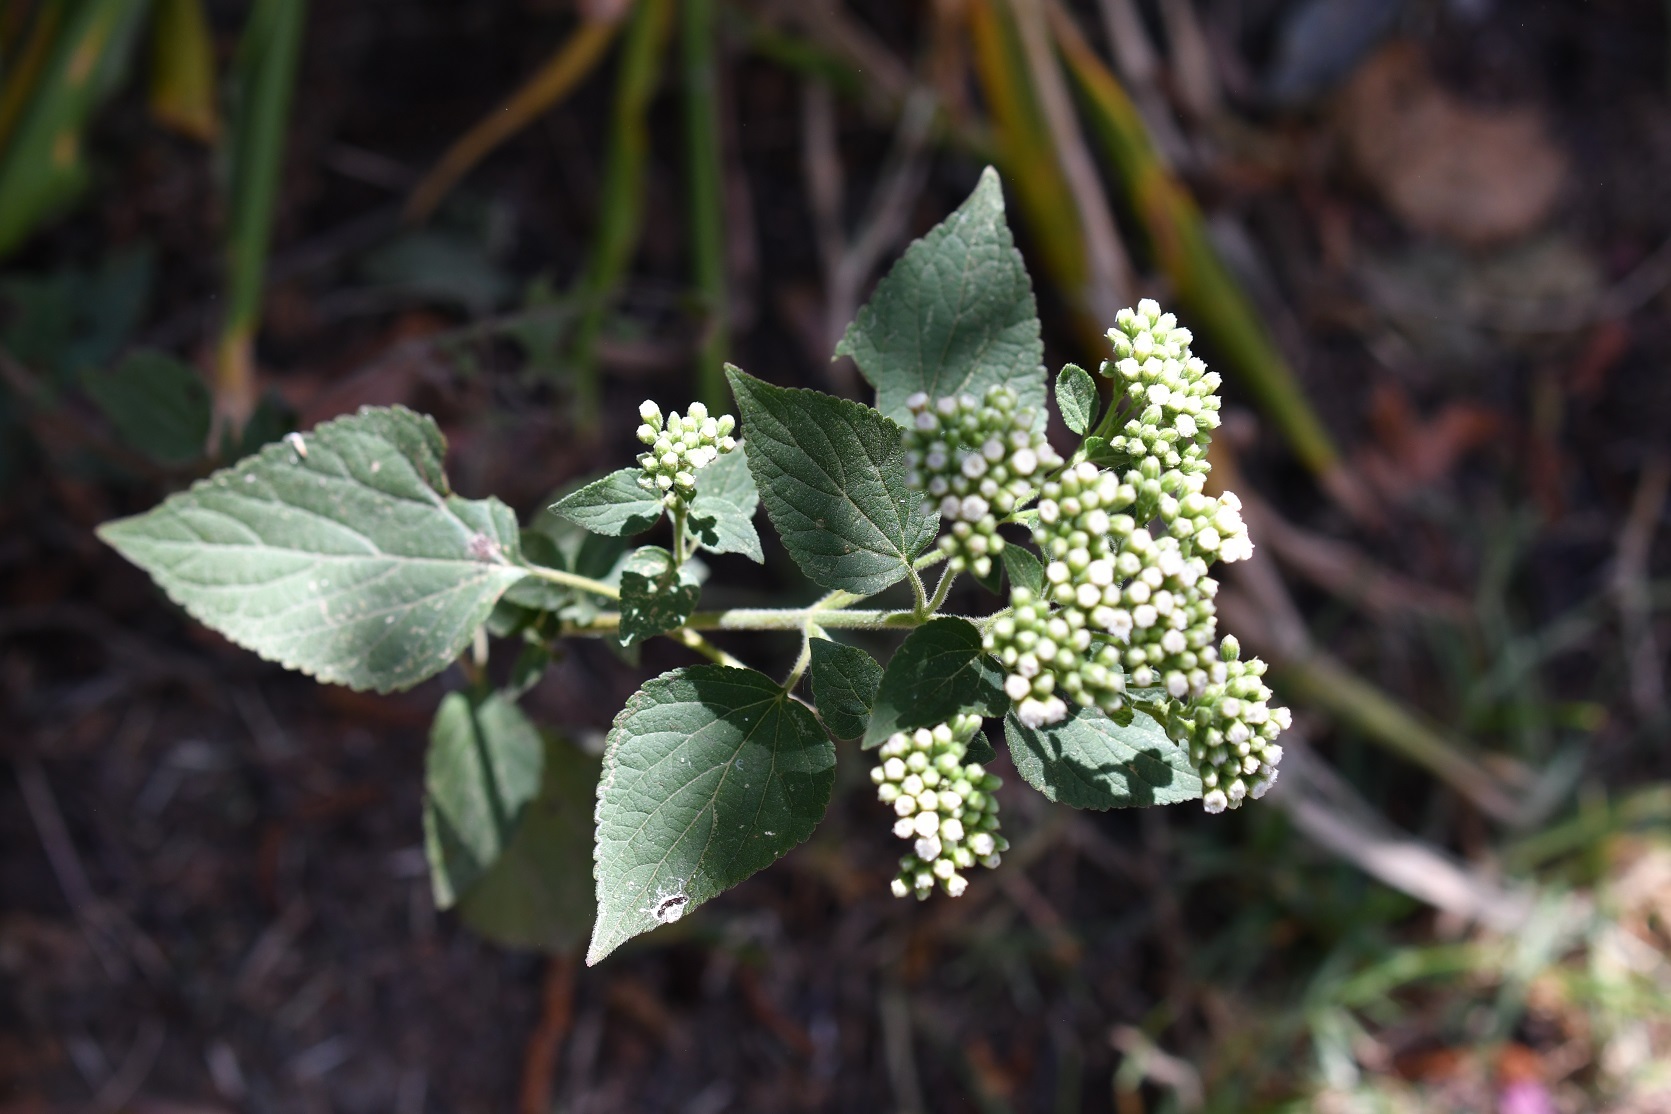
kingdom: Plantae
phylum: Tracheophyta
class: Magnoliopsida
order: Asterales
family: Asteraceae
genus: Ageratina
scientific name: Ageratina adenophora
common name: Sticky snakeroot
